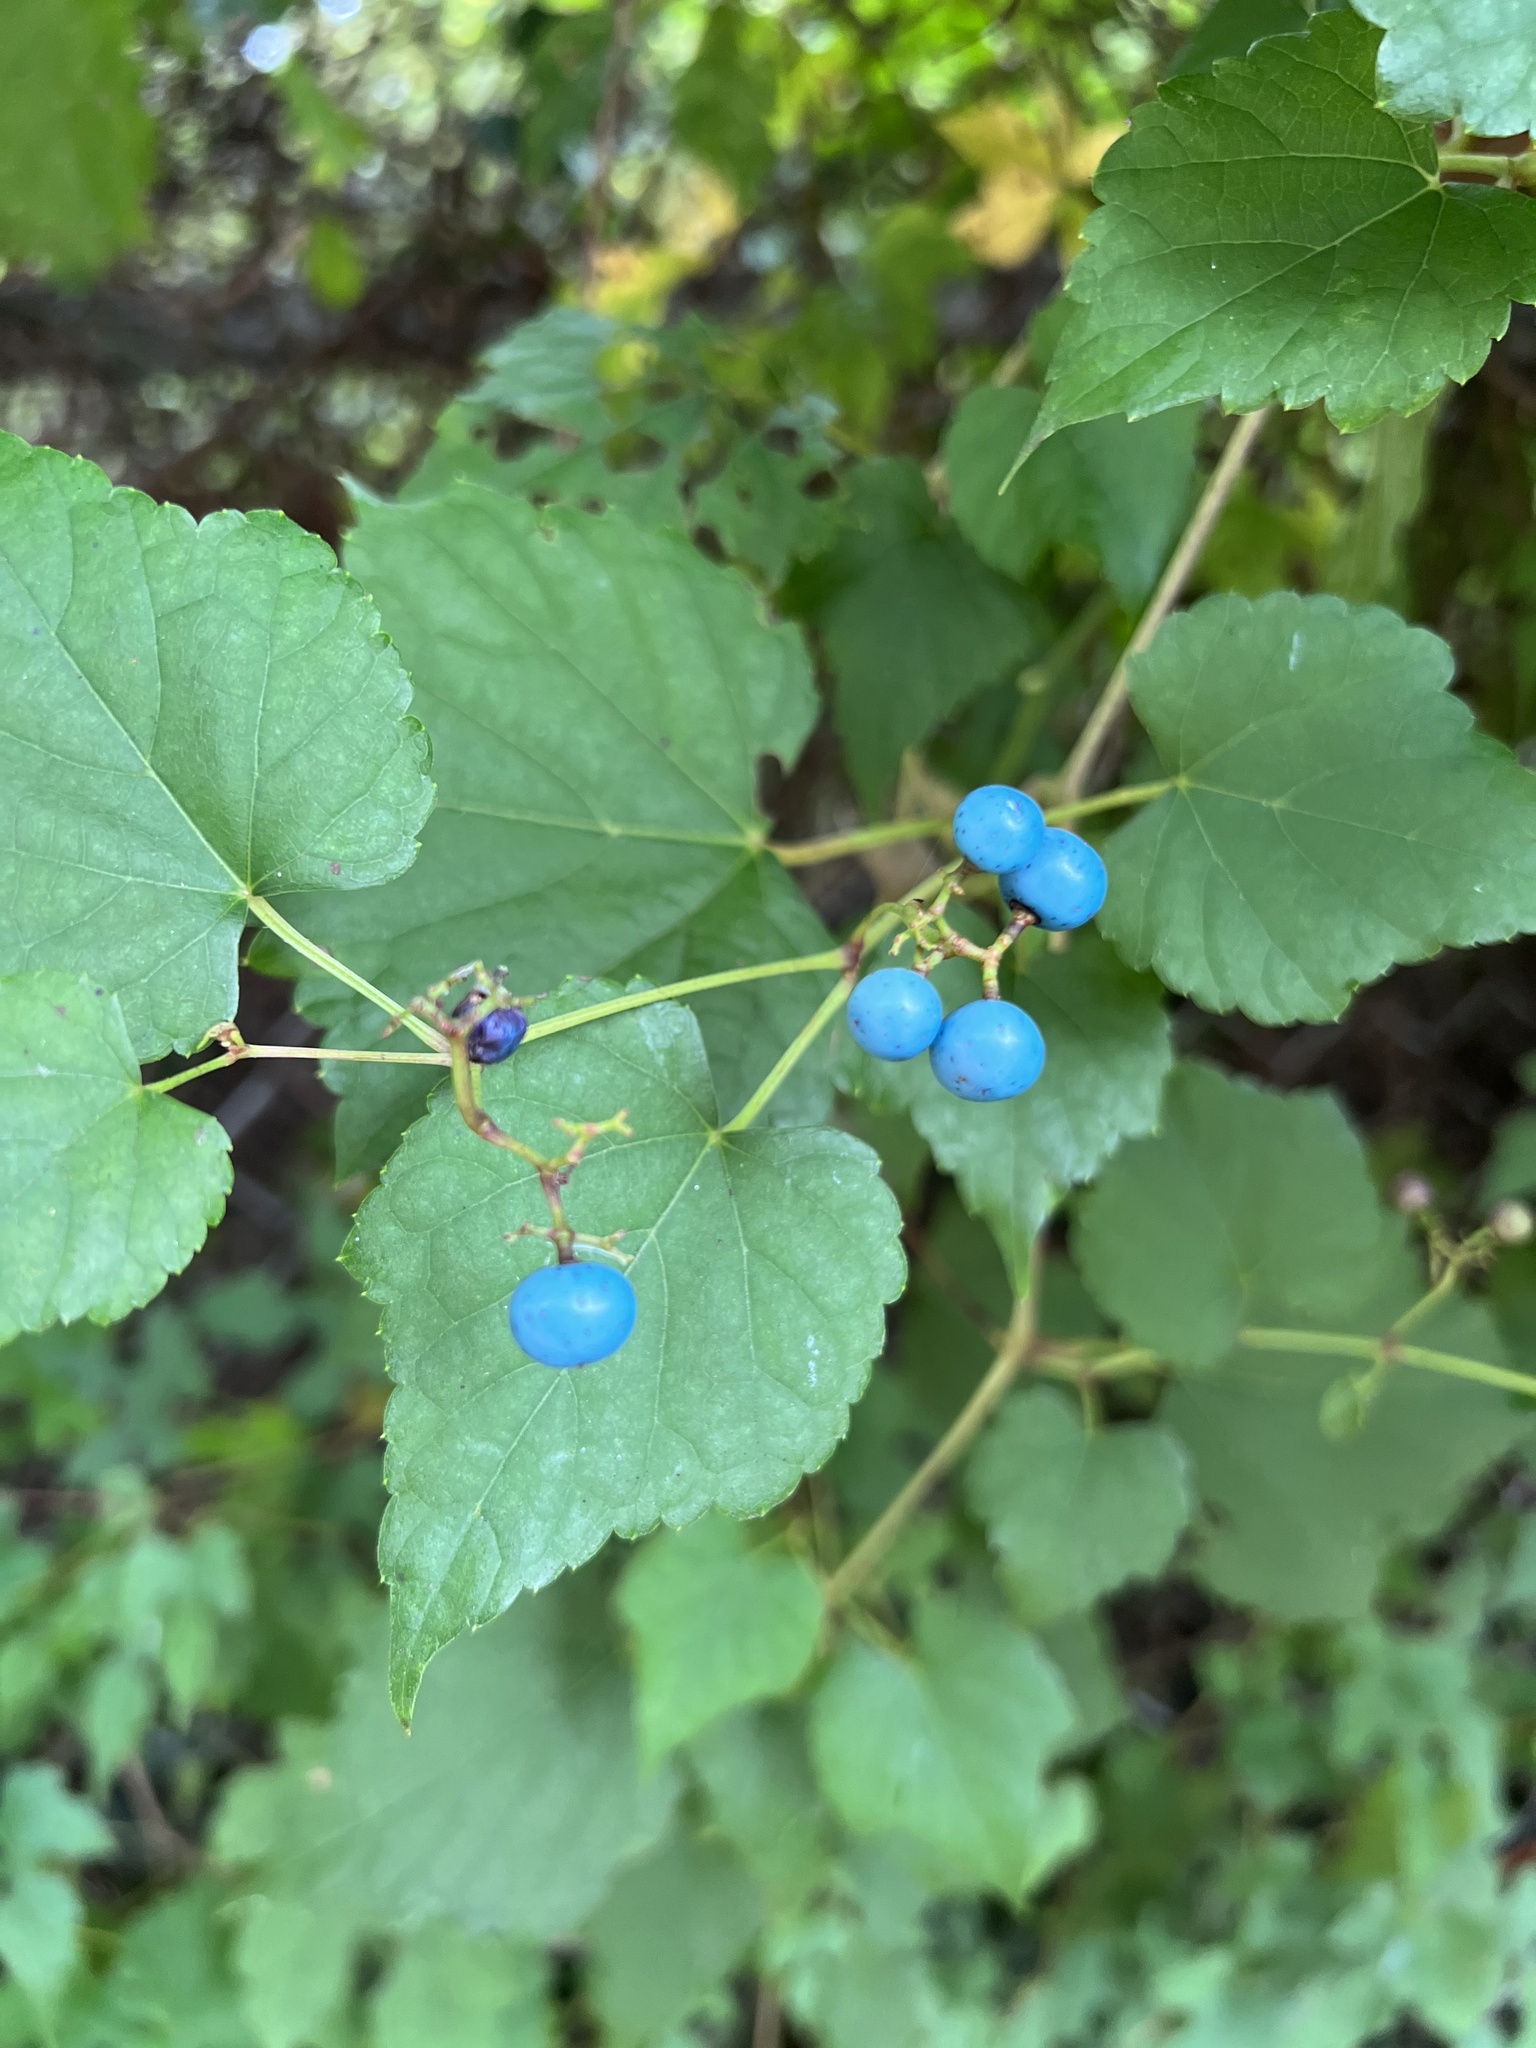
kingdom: Plantae
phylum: Tracheophyta
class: Magnoliopsida
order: Vitales
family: Vitaceae
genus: Ampelopsis
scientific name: Ampelopsis glandulosa
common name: Amur peppervine
